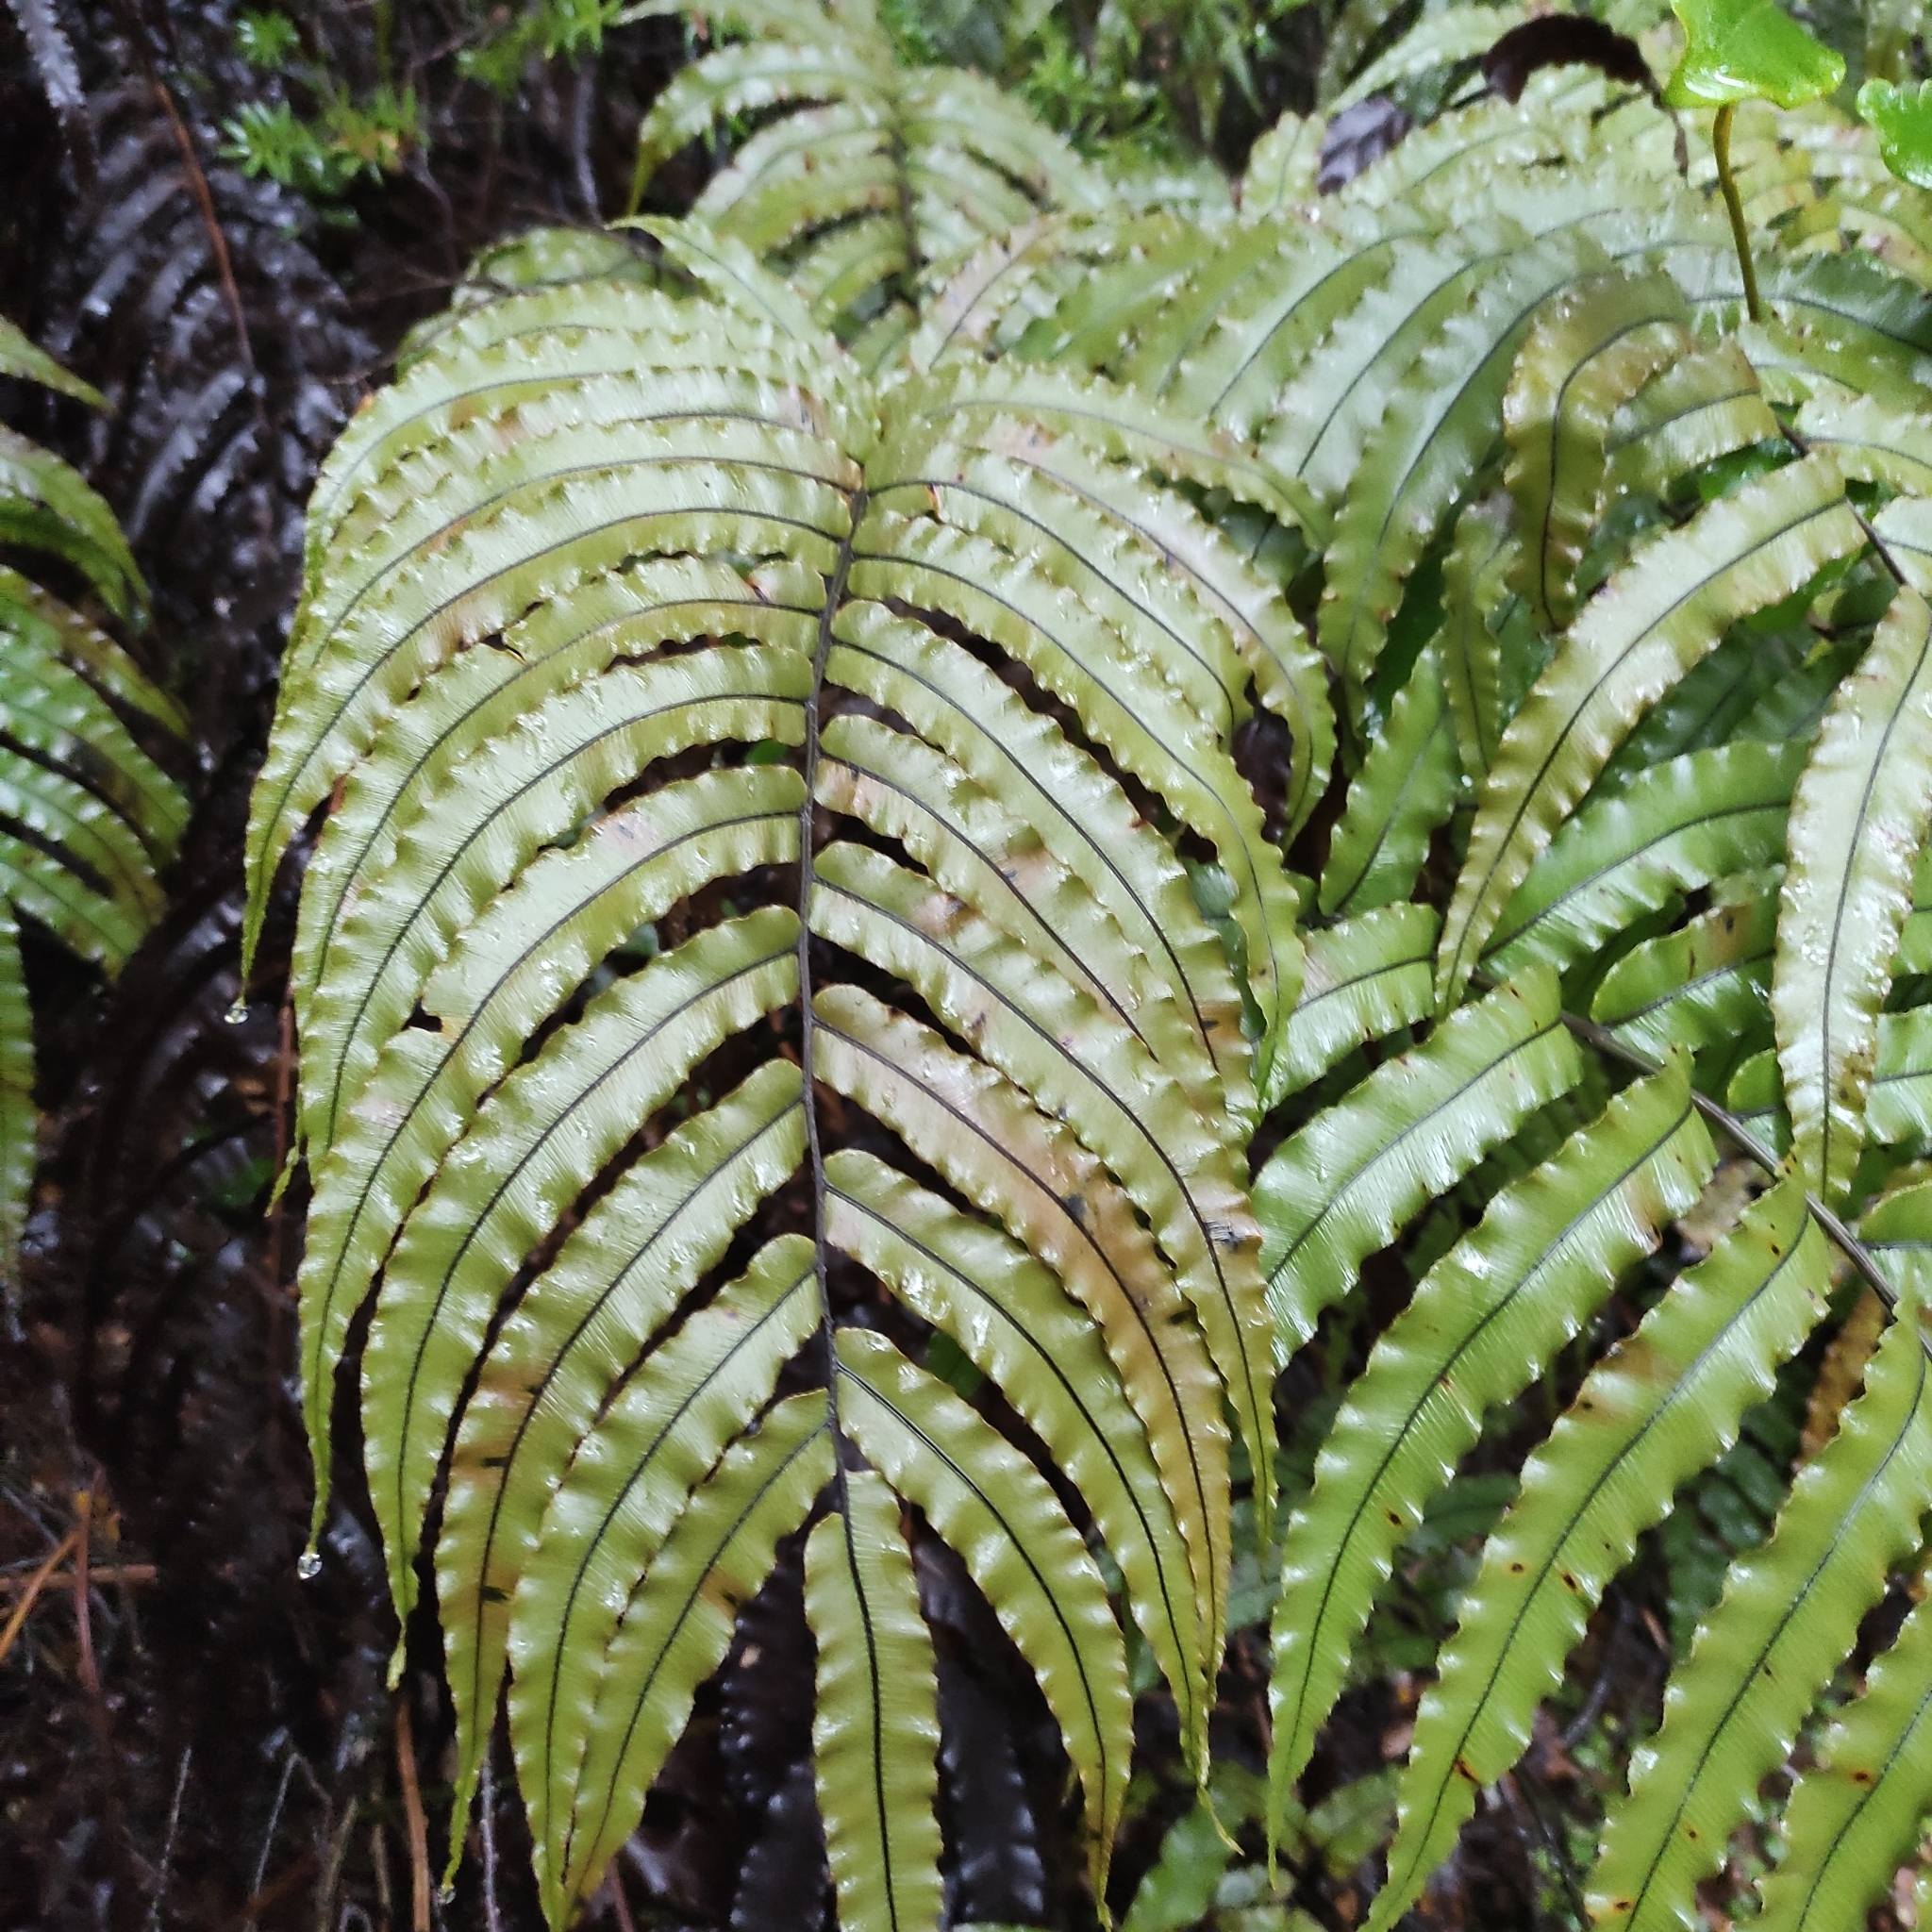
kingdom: Plantae
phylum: Tracheophyta
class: Polypodiopsida
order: Polypodiales
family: Blechnaceae
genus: Parablechnum
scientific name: Parablechnum montanum
